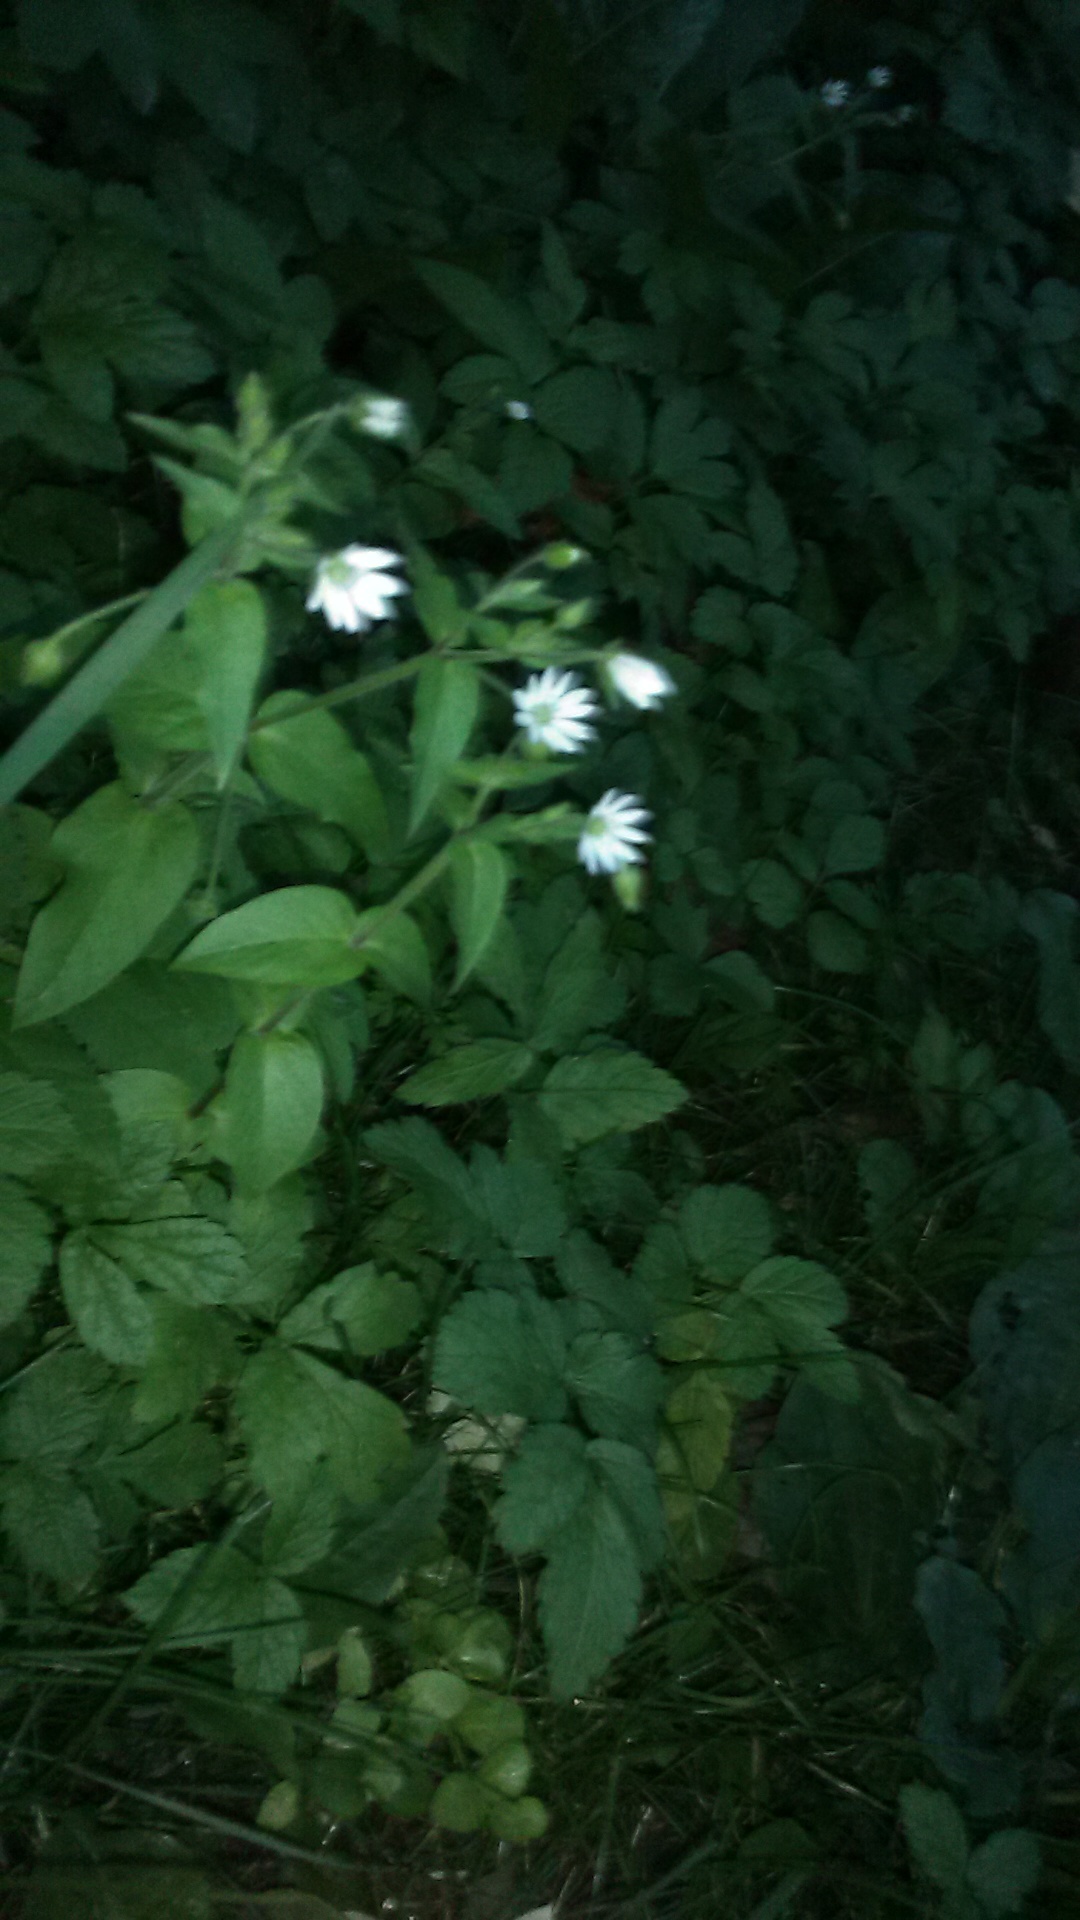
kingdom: Plantae
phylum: Tracheophyta
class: Magnoliopsida
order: Caryophyllales
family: Caryophyllaceae
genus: Stellaria
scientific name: Stellaria aquatica
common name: Water chickweed
